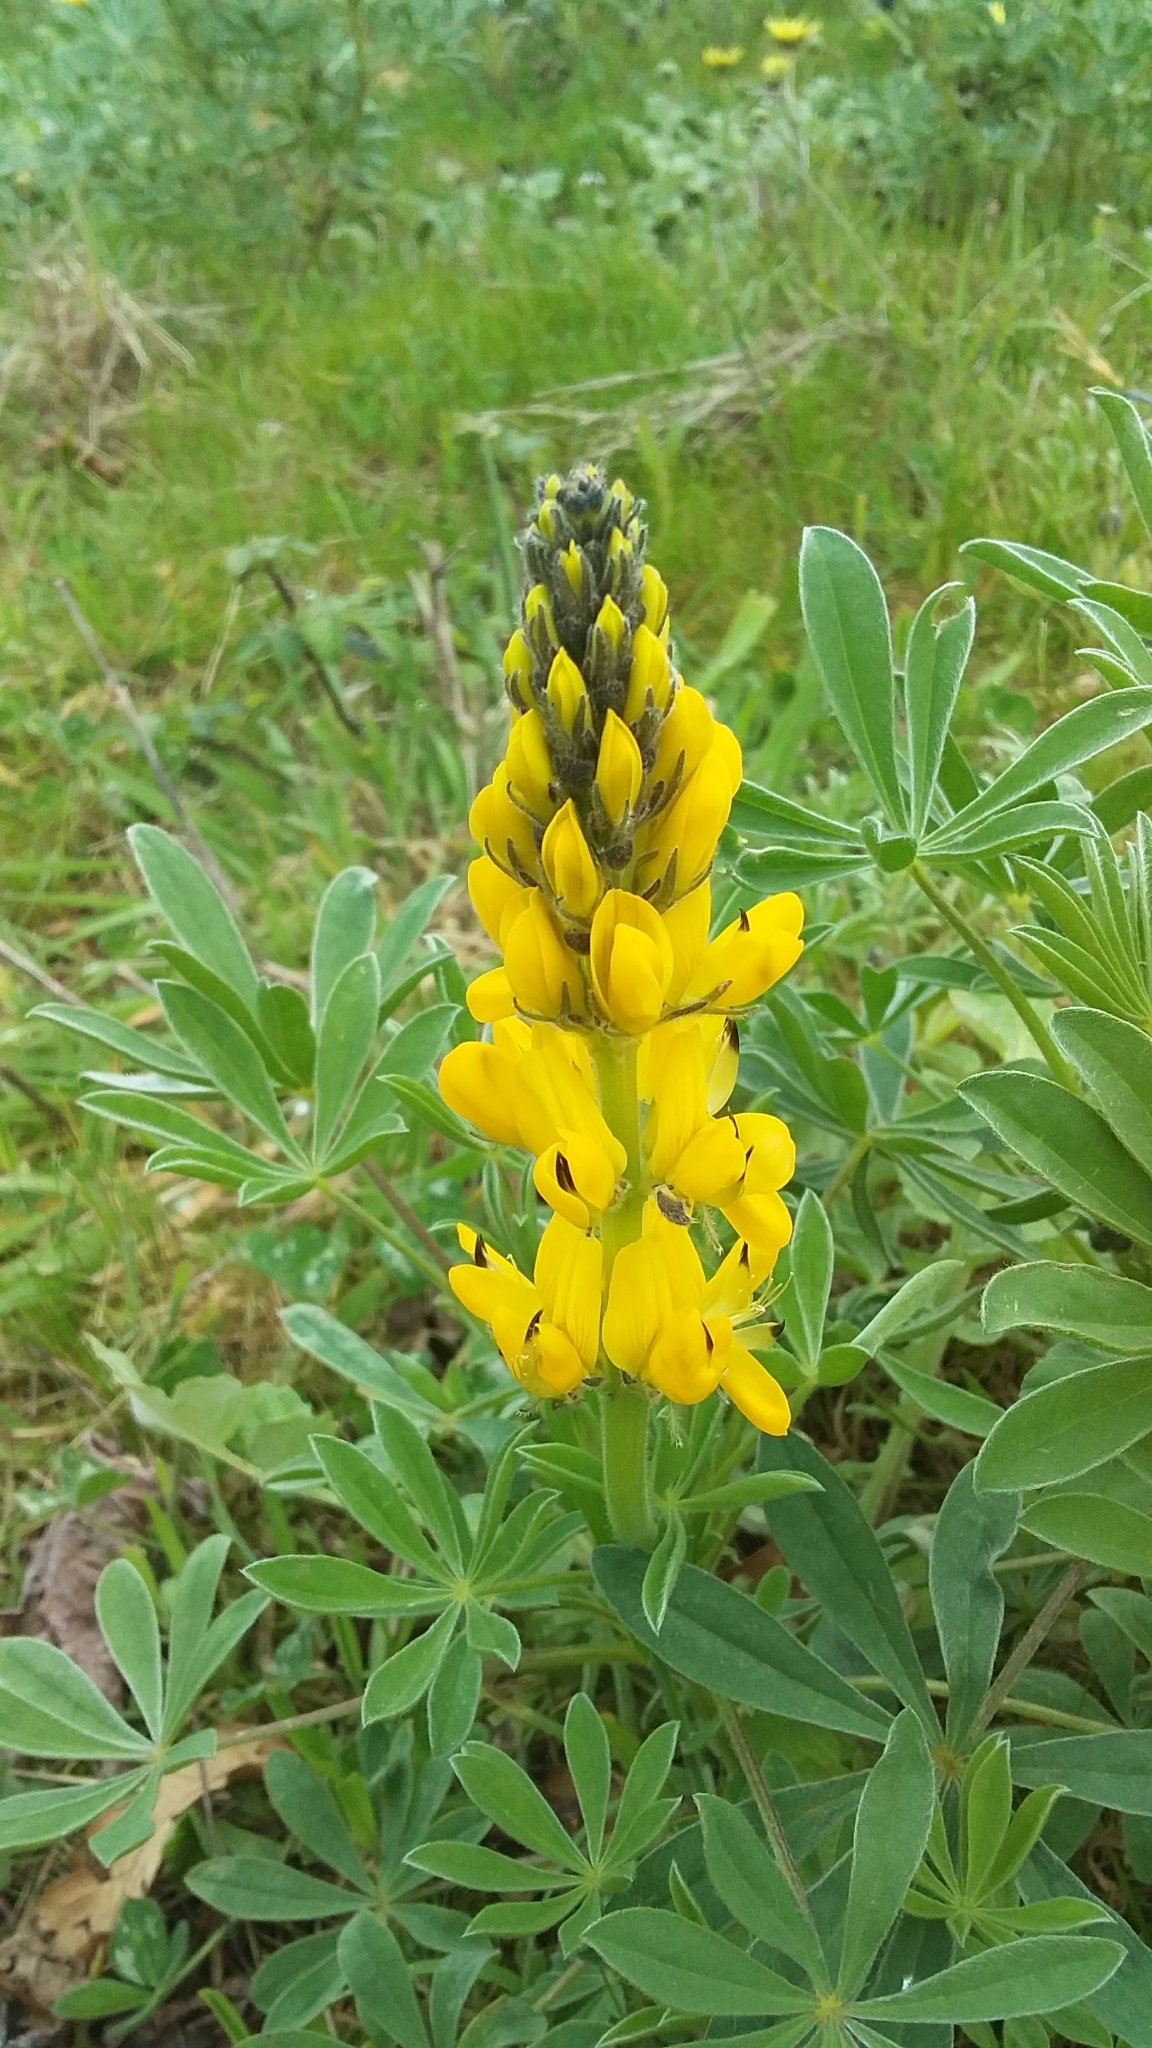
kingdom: Plantae
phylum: Tracheophyta
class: Magnoliopsida
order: Fabales
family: Fabaceae
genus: Lupinus
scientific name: Lupinus luteus
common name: European yellow lupine
